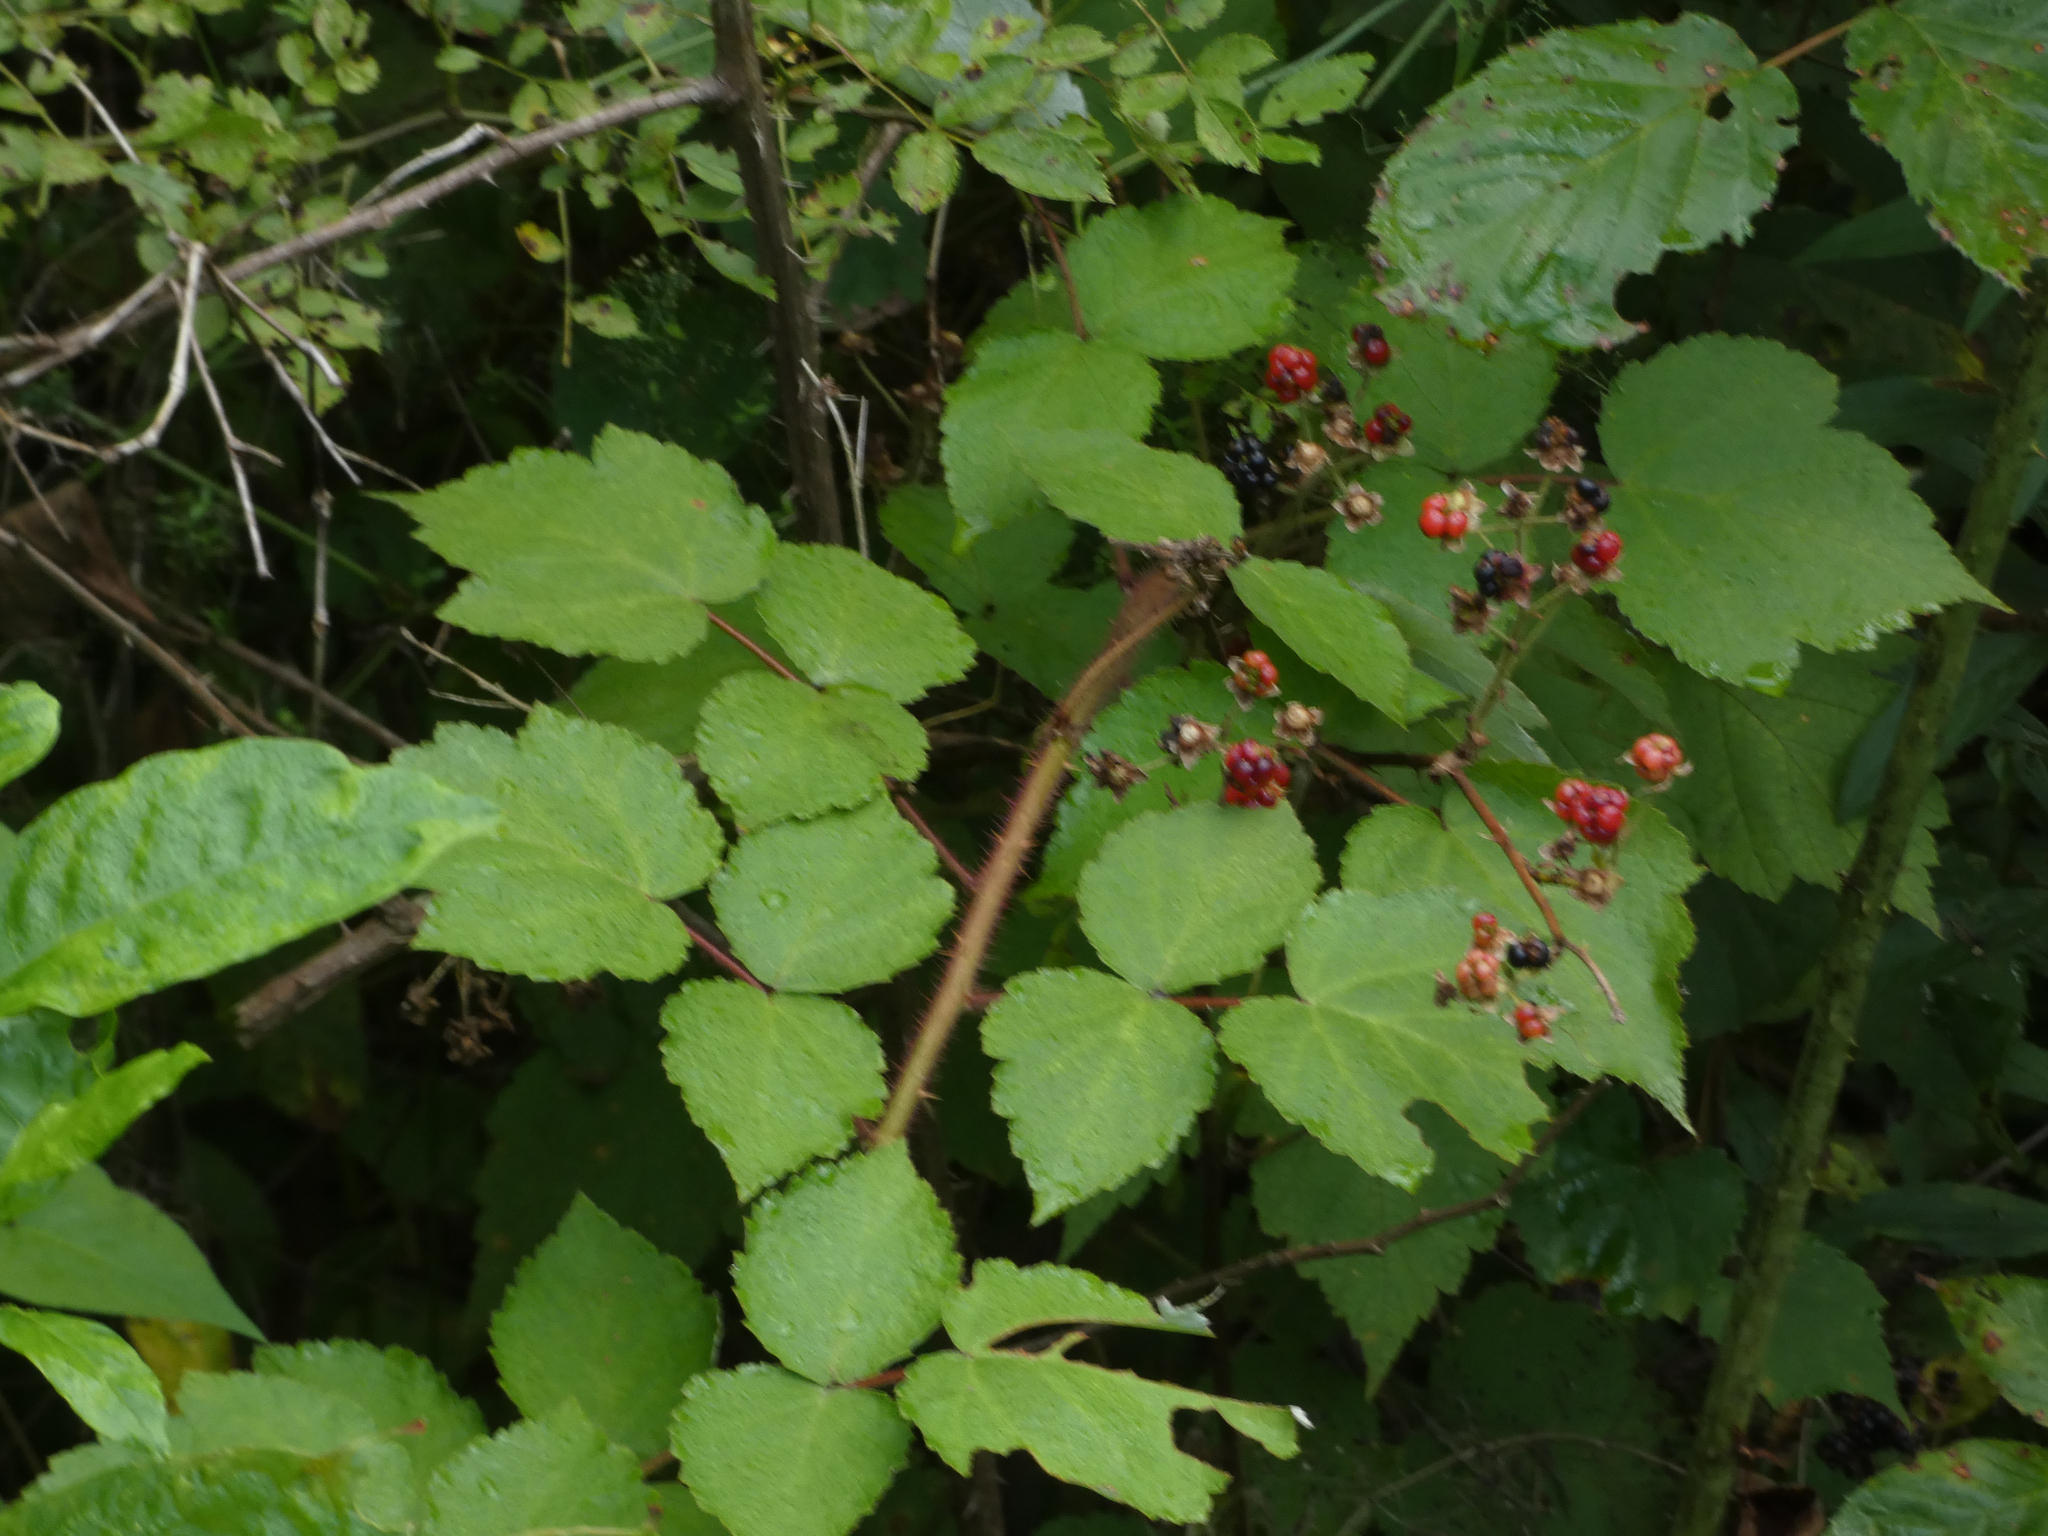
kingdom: Plantae
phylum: Tracheophyta
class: Magnoliopsida
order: Rosales
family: Rosaceae
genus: Rubus
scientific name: Rubus phoenicolasius
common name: Japanese wineberry
